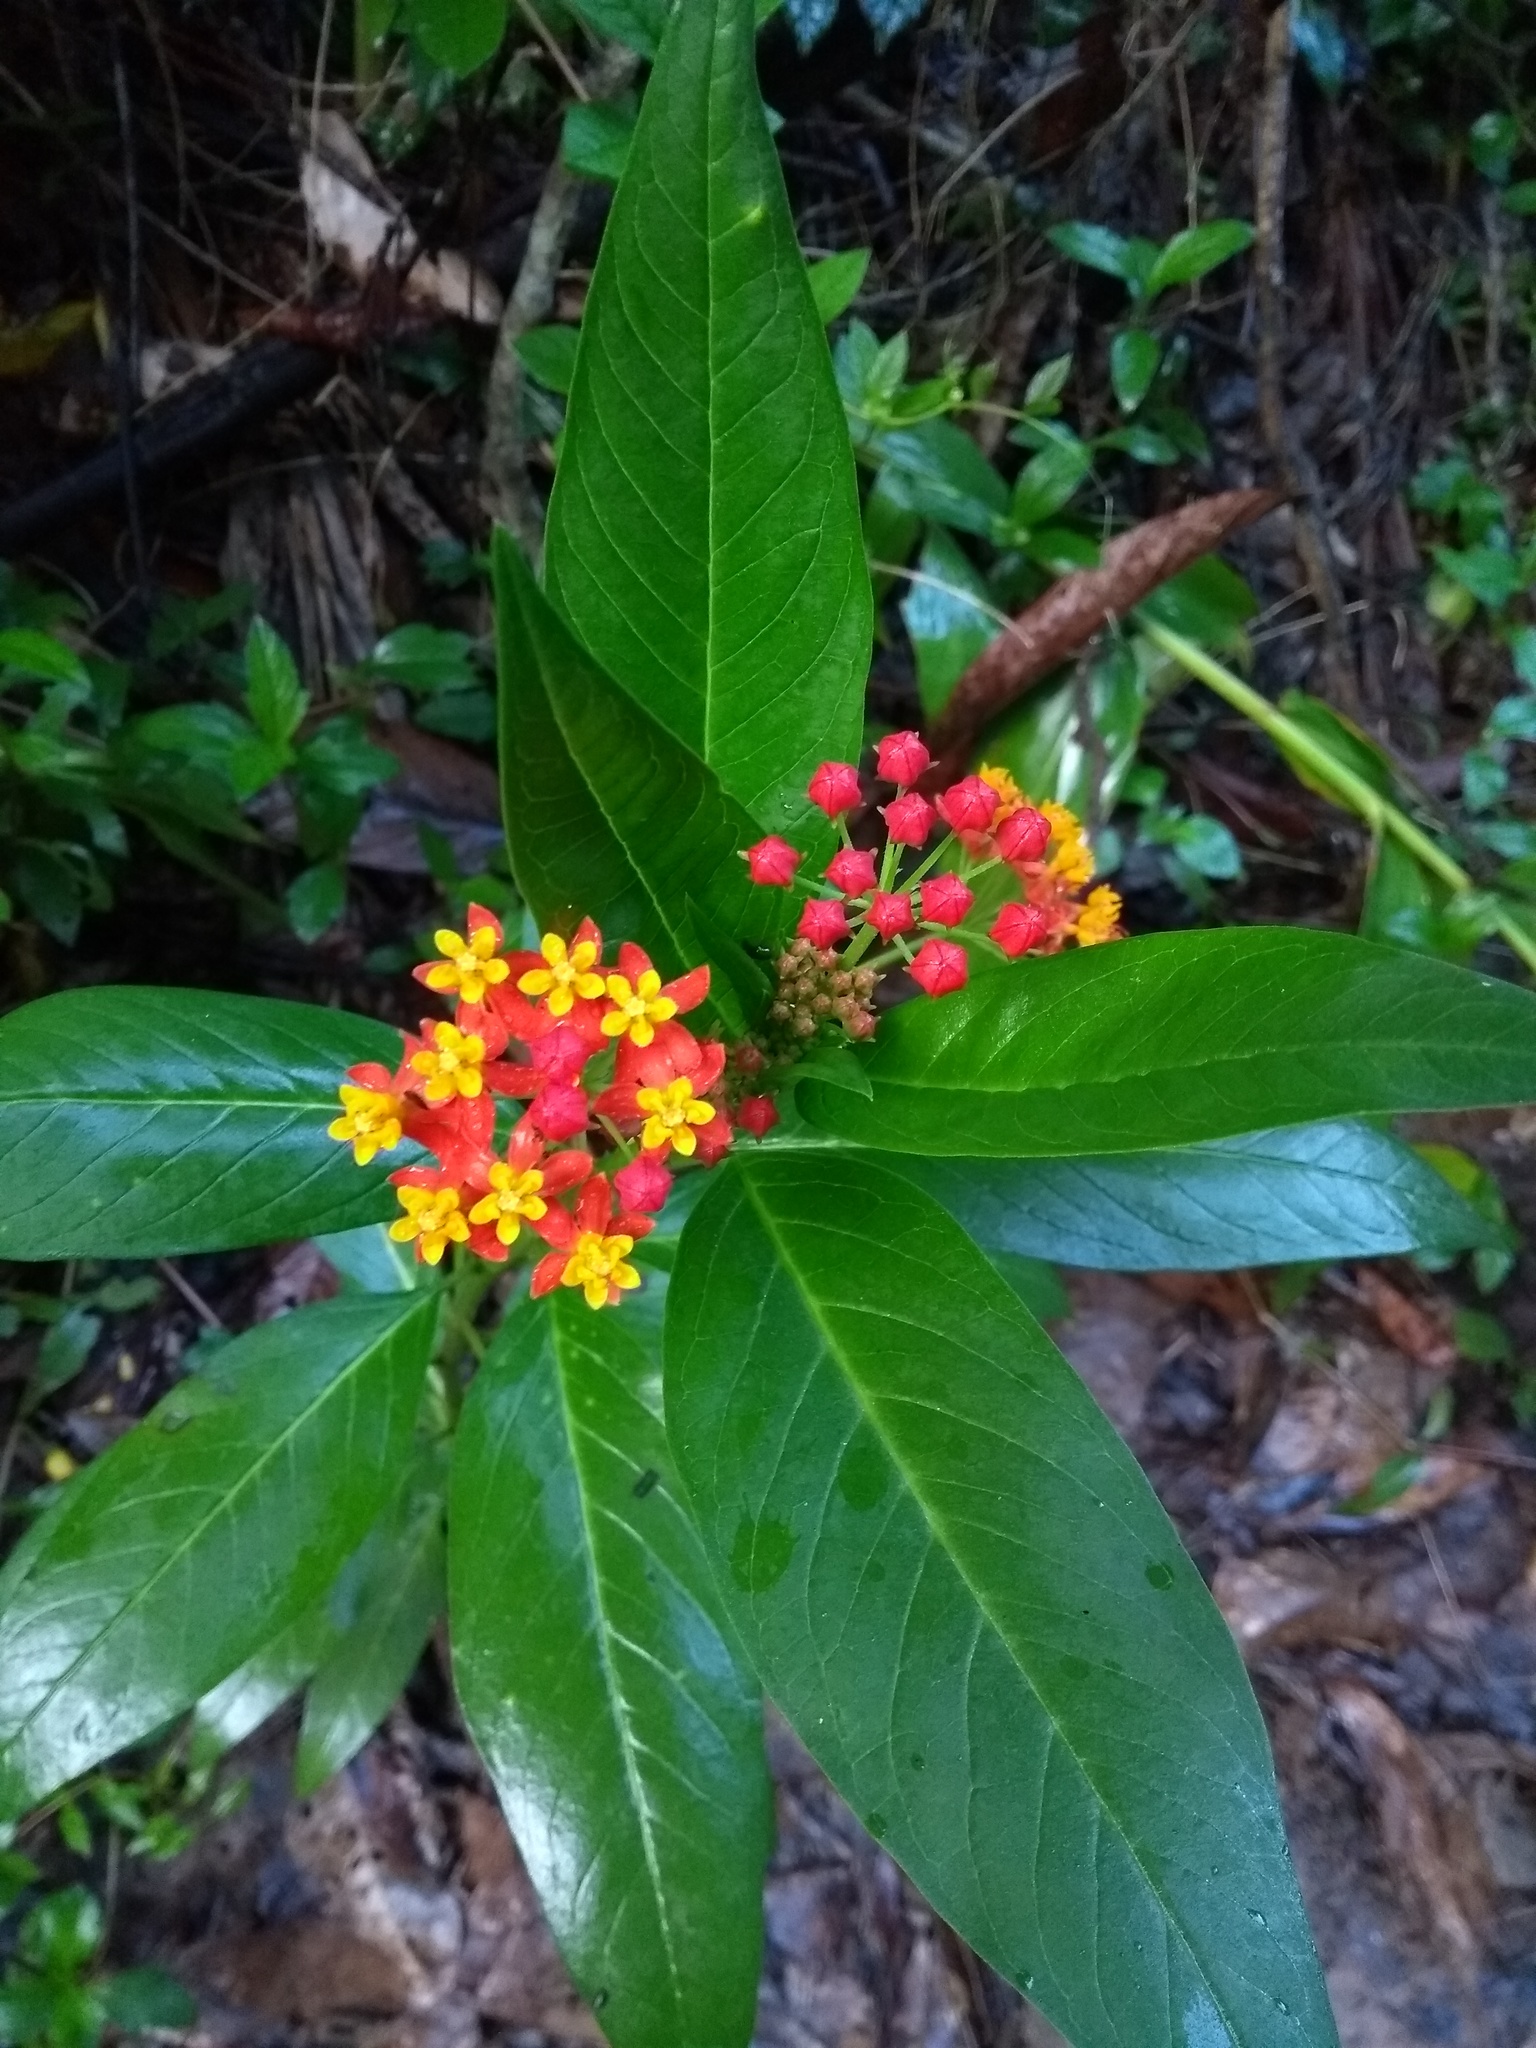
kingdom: Plantae
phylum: Tracheophyta
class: Magnoliopsida
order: Gentianales
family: Apocynaceae
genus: Asclepias
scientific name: Asclepias curassavica
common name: Bloodflower
